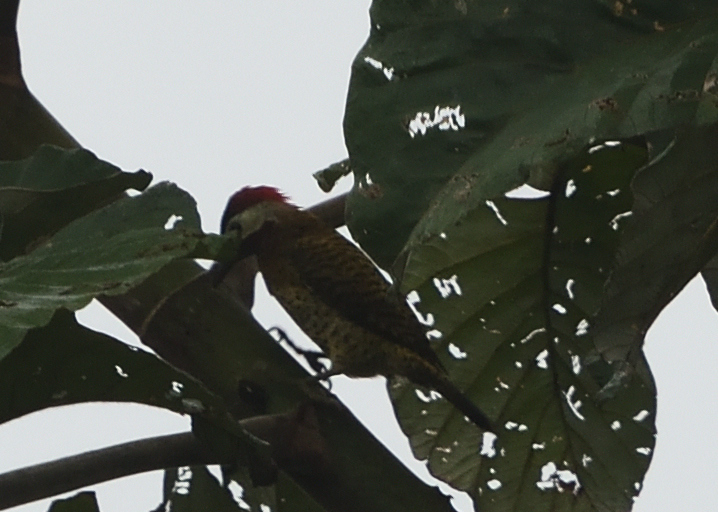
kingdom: Animalia
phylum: Chordata
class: Aves
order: Piciformes
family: Picidae
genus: Colaptes
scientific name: Colaptes punctigula
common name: Spot-breasted woodpecker
